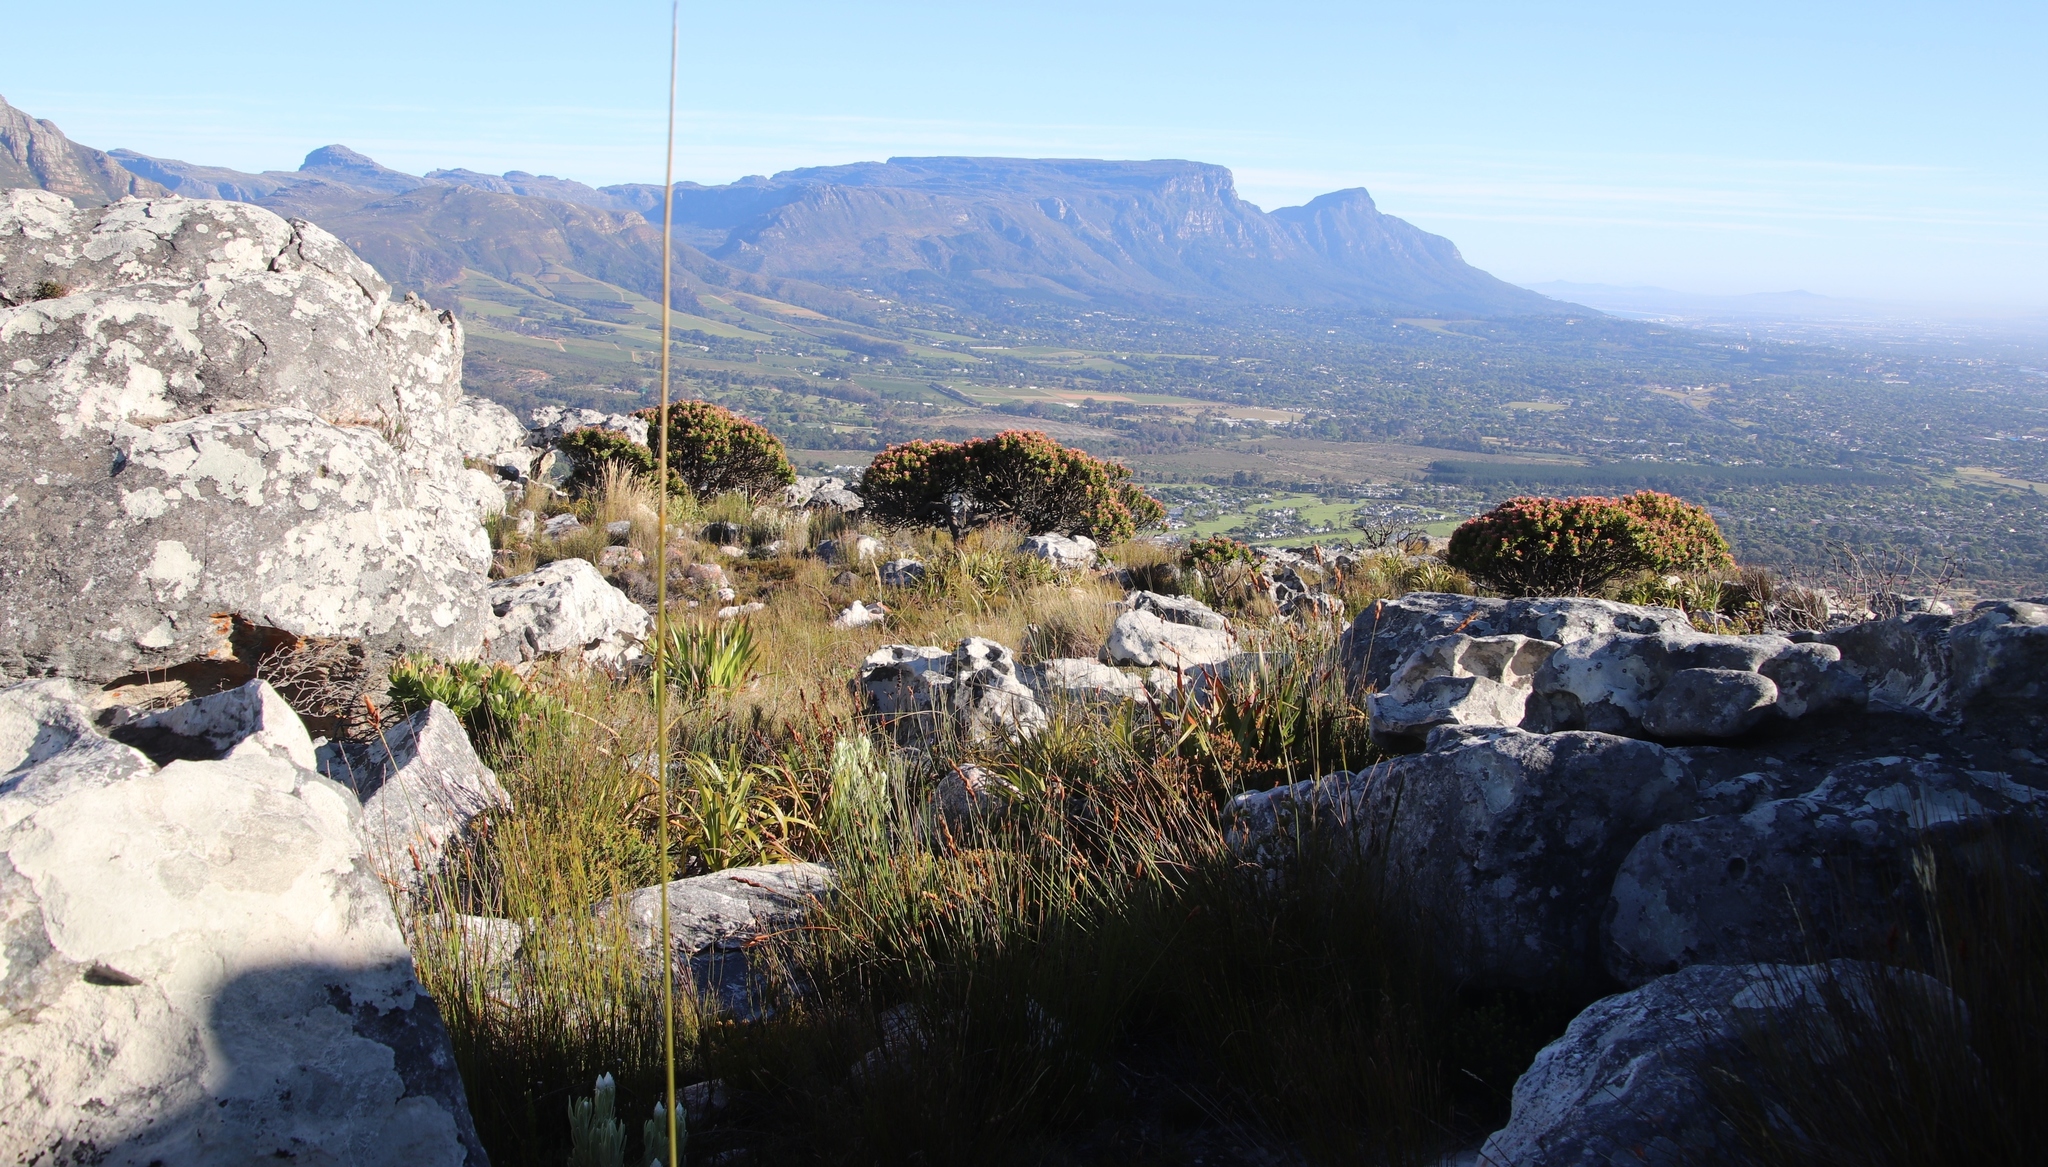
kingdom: Plantae
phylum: Tracheophyta
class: Magnoliopsida
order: Proteales
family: Proteaceae
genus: Mimetes
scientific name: Mimetes fimbriifolius
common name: Fringed bottlebrush
